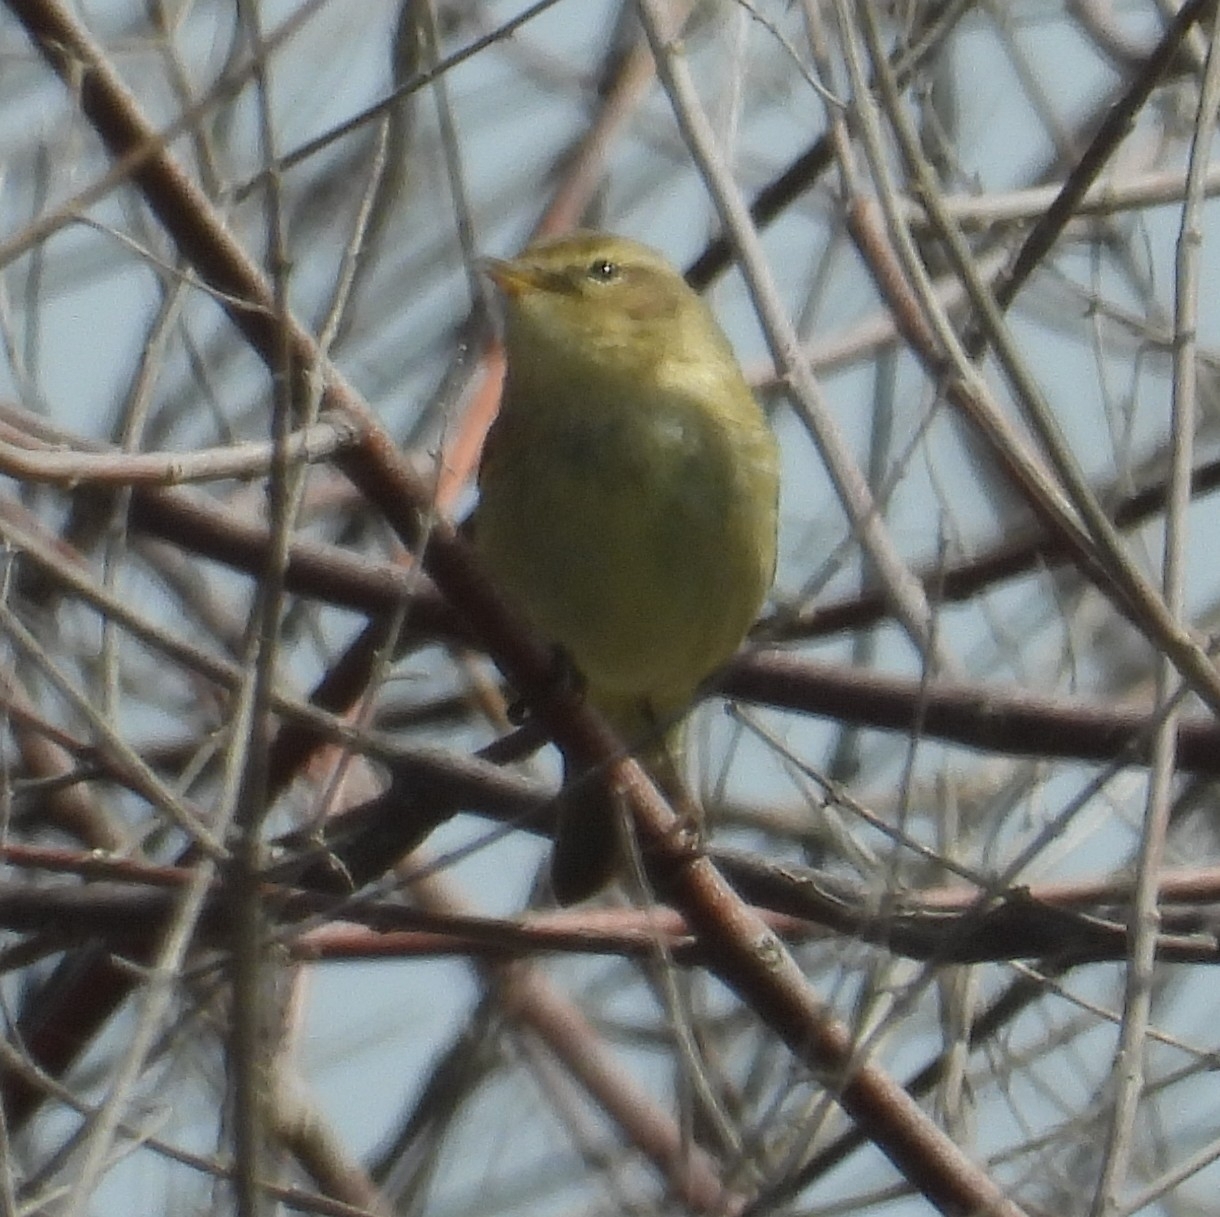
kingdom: Animalia
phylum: Chordata
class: Aves
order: Passeriformes
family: Phylloscopidae
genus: Phylloscopus
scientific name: Phylloscopus collybita
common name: Common chiffchaff
